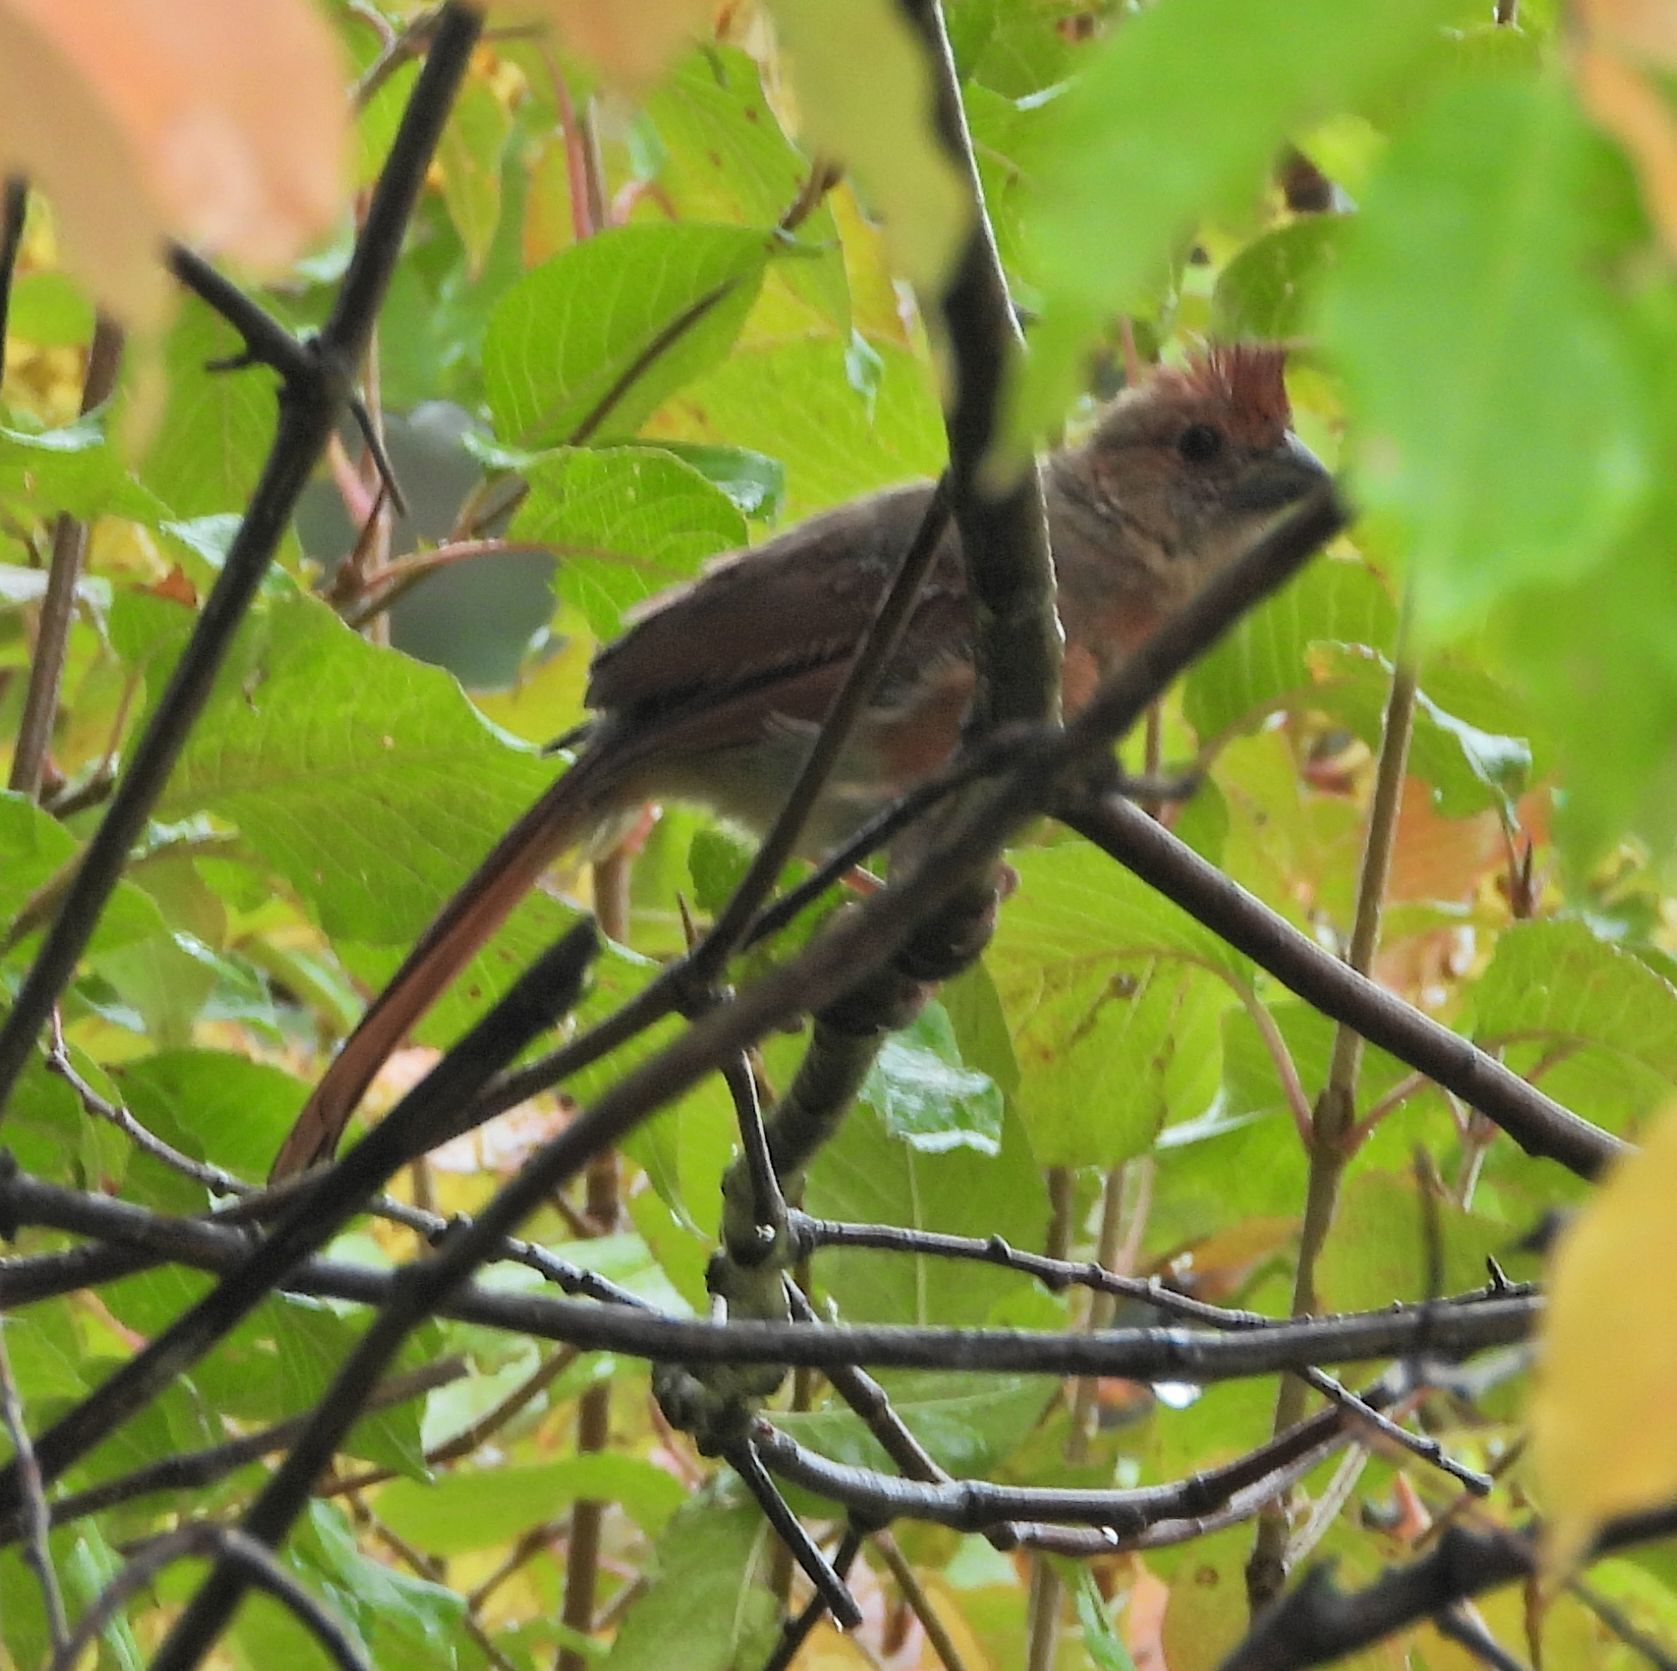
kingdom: Animalia
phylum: Chordata
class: Aves
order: Passeriformes
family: Cardinalidae
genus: Cardinalis
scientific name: Cardinalis cardinalis
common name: Northern cardinal
